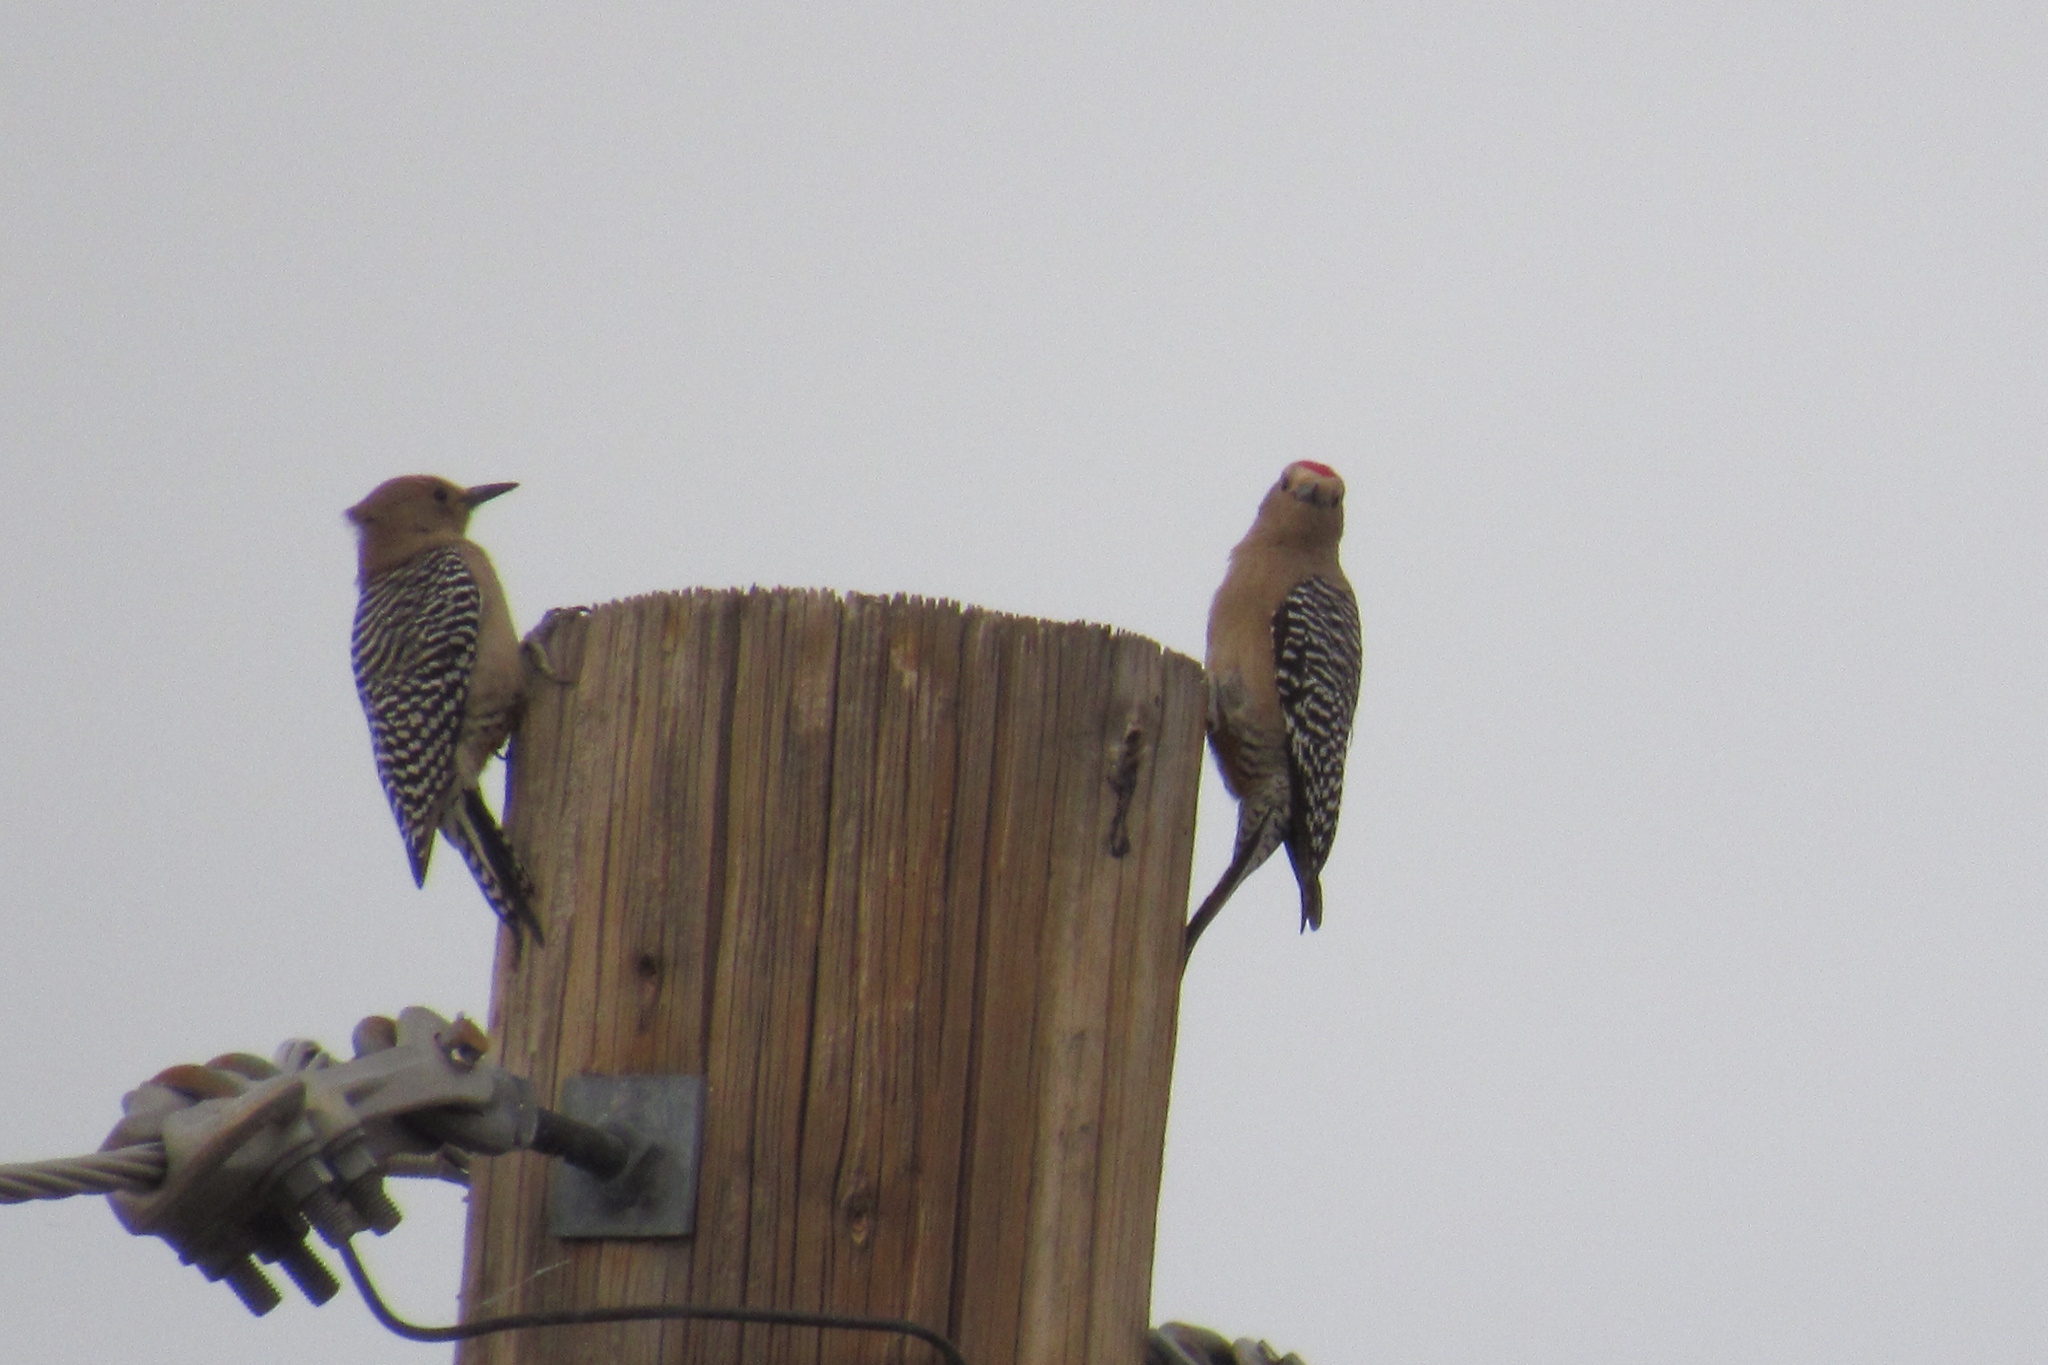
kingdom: Animalia
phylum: Chordata
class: Aves
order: Piciformes
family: Picidae
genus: Melanerpes
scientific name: Melanerpes uropygialis
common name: Gila woodpecker
